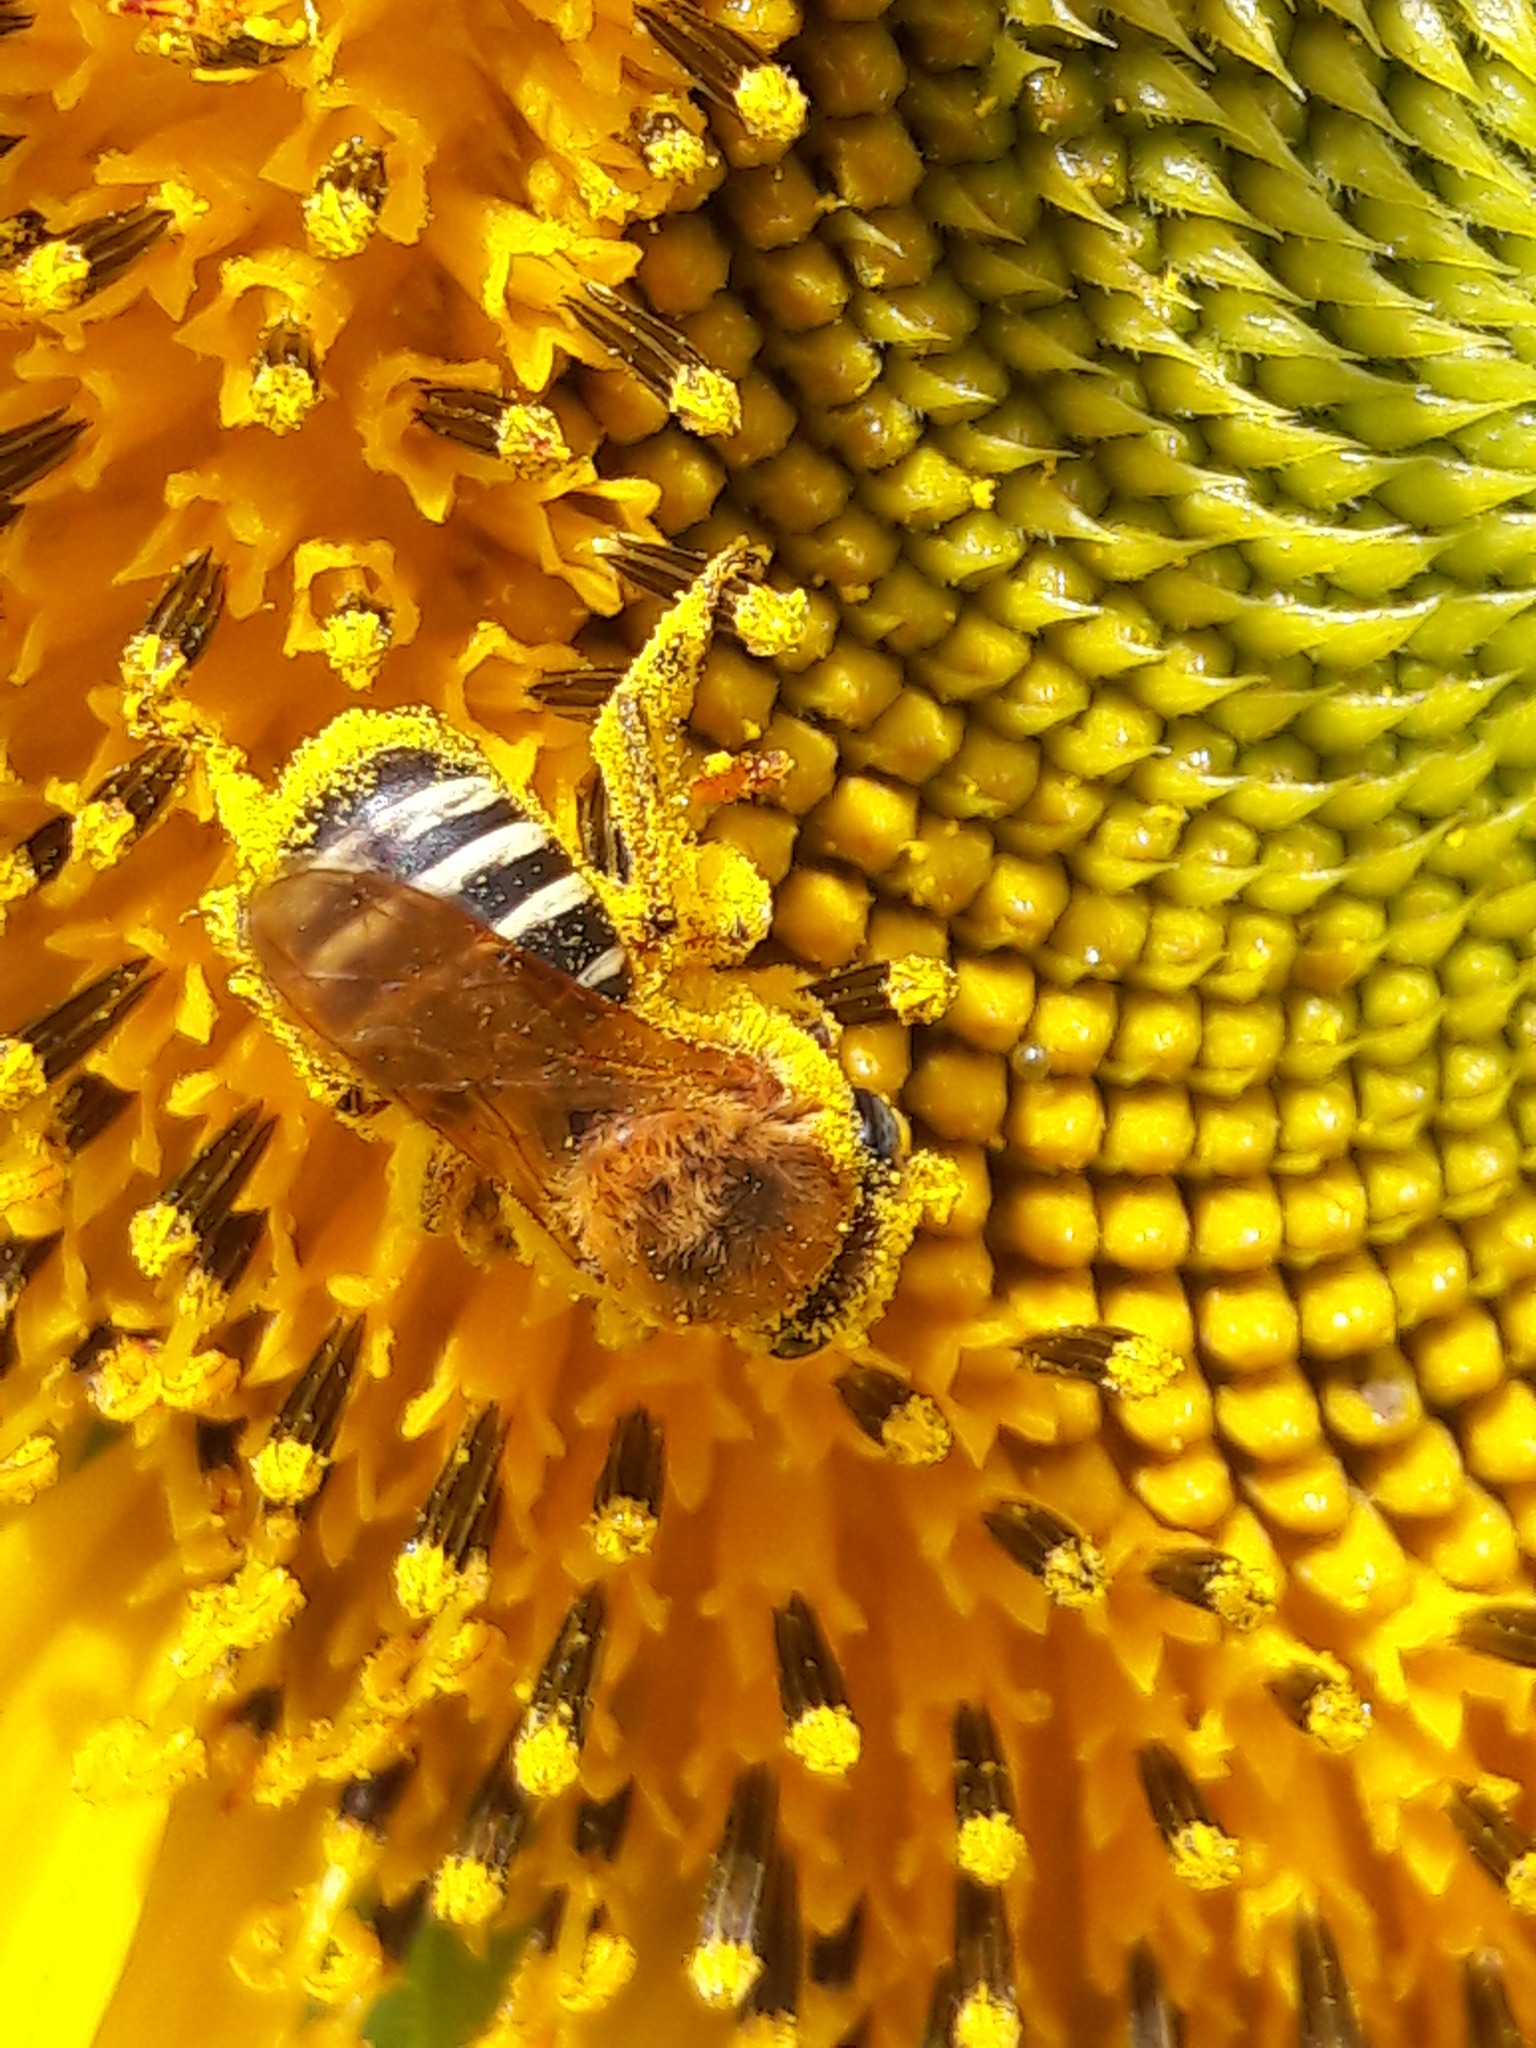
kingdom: Animalia
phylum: Arthropoda
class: Insecta
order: Hymenoptera
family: Apidae
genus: Melipona
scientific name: Melipona quinquefasciata
